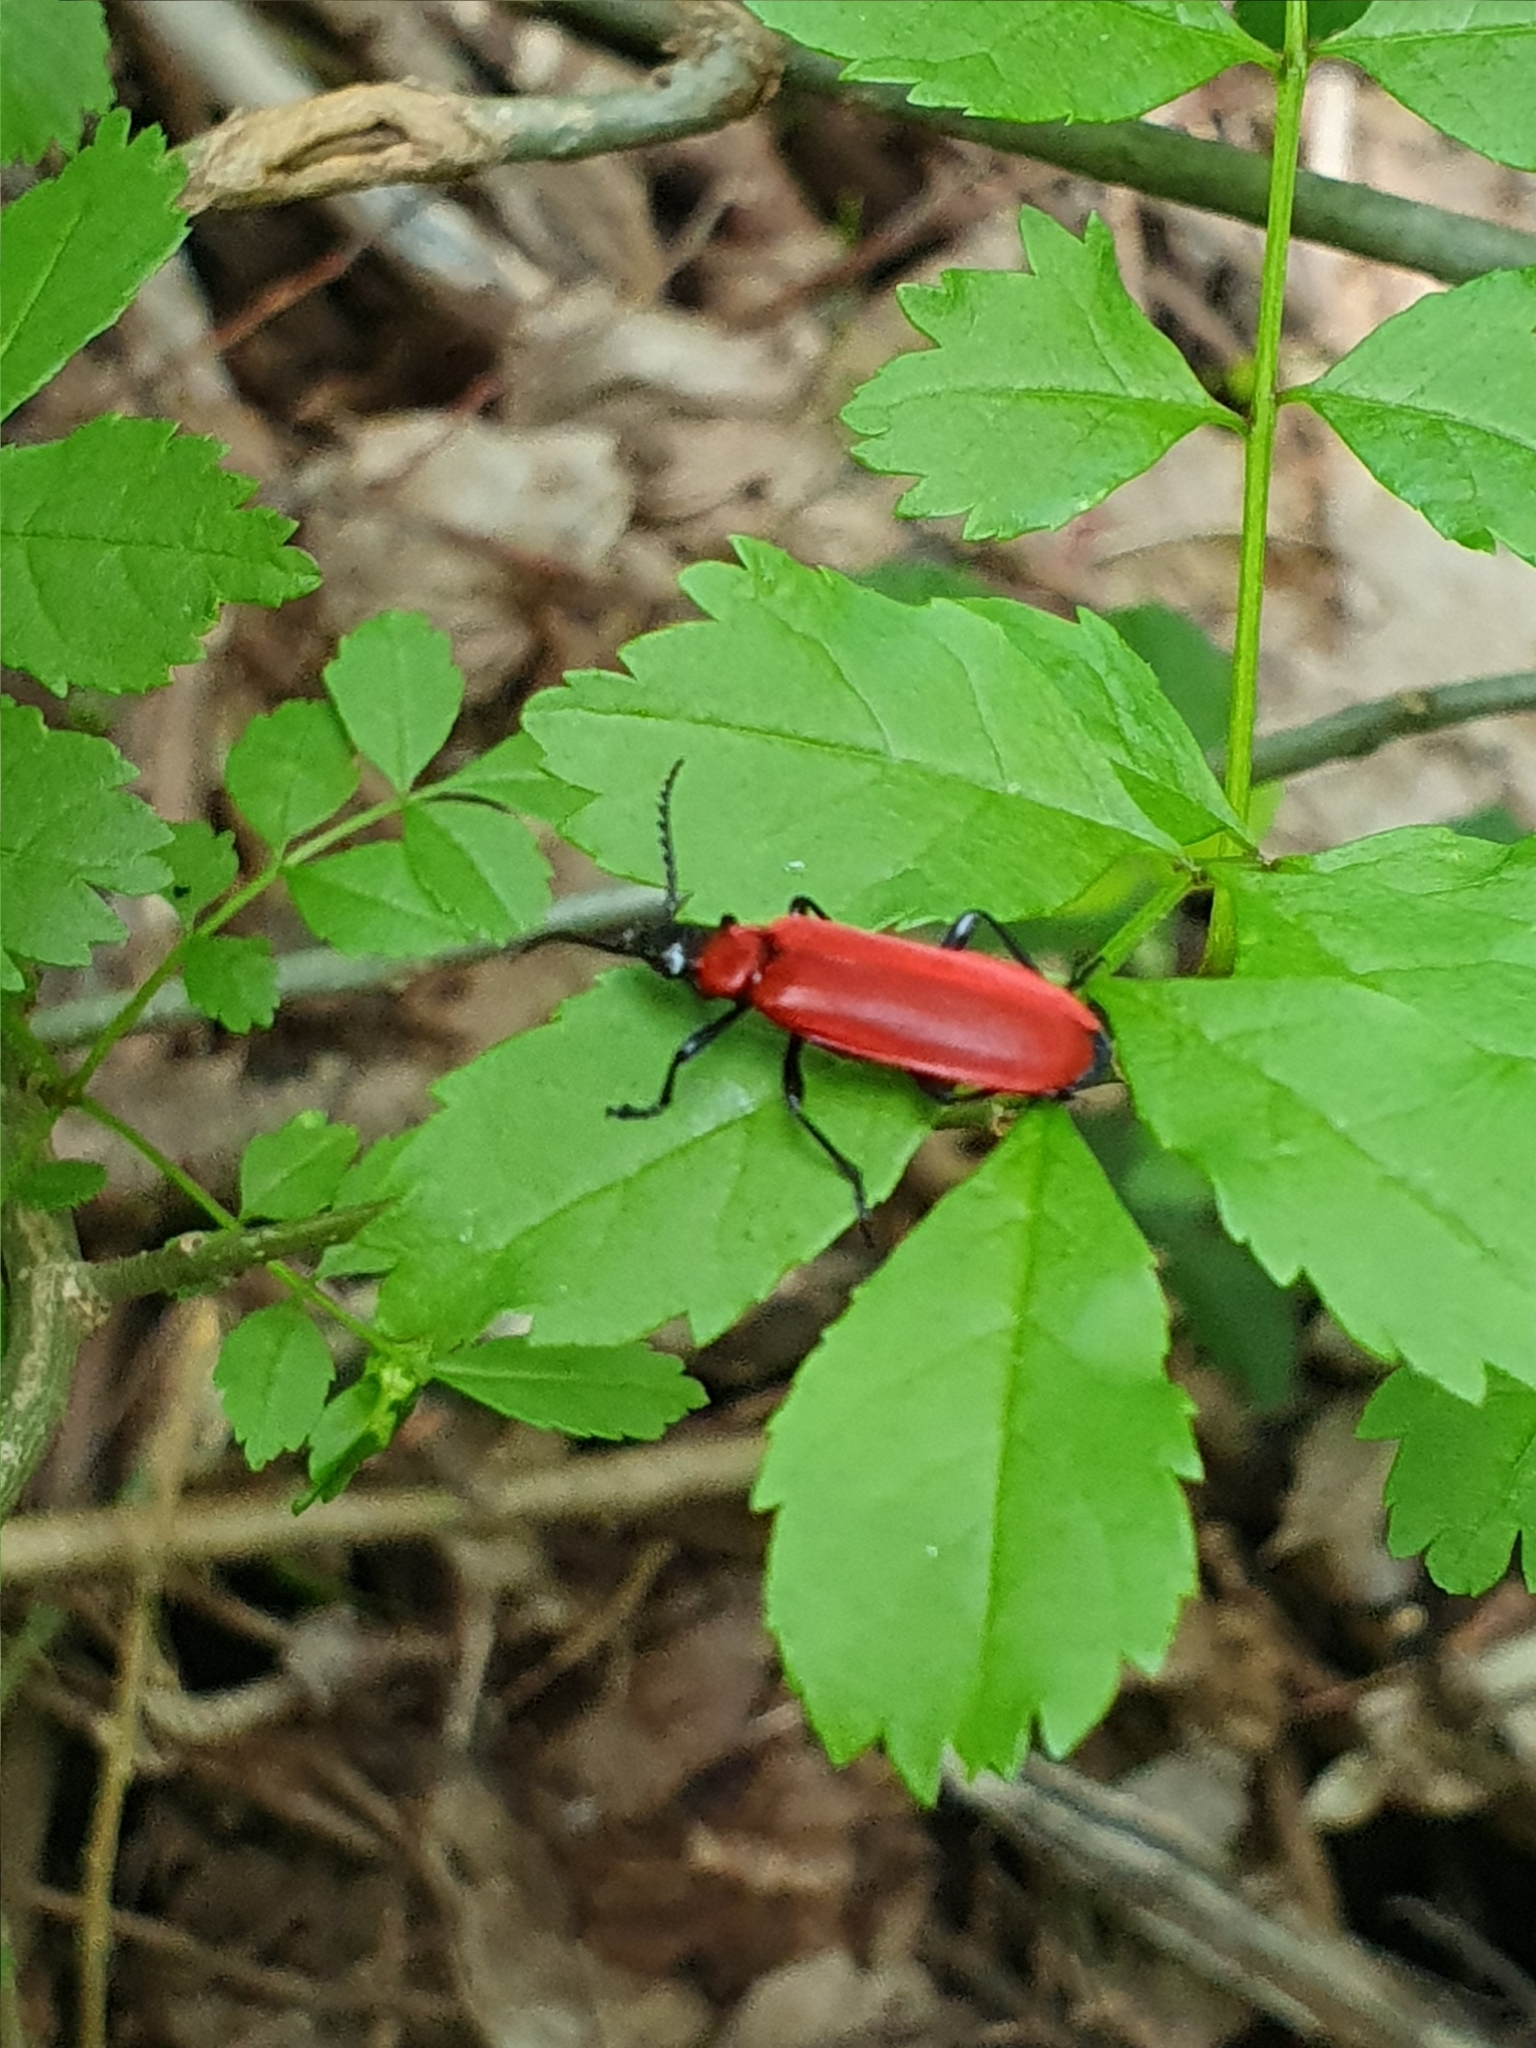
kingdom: Animalia
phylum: Arthropoda
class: Insecta
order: Coleoptera
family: Pyrochroidae
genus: Pyrochroa
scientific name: Pyrochroa coccinea
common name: Black-headed cardinal beetle
